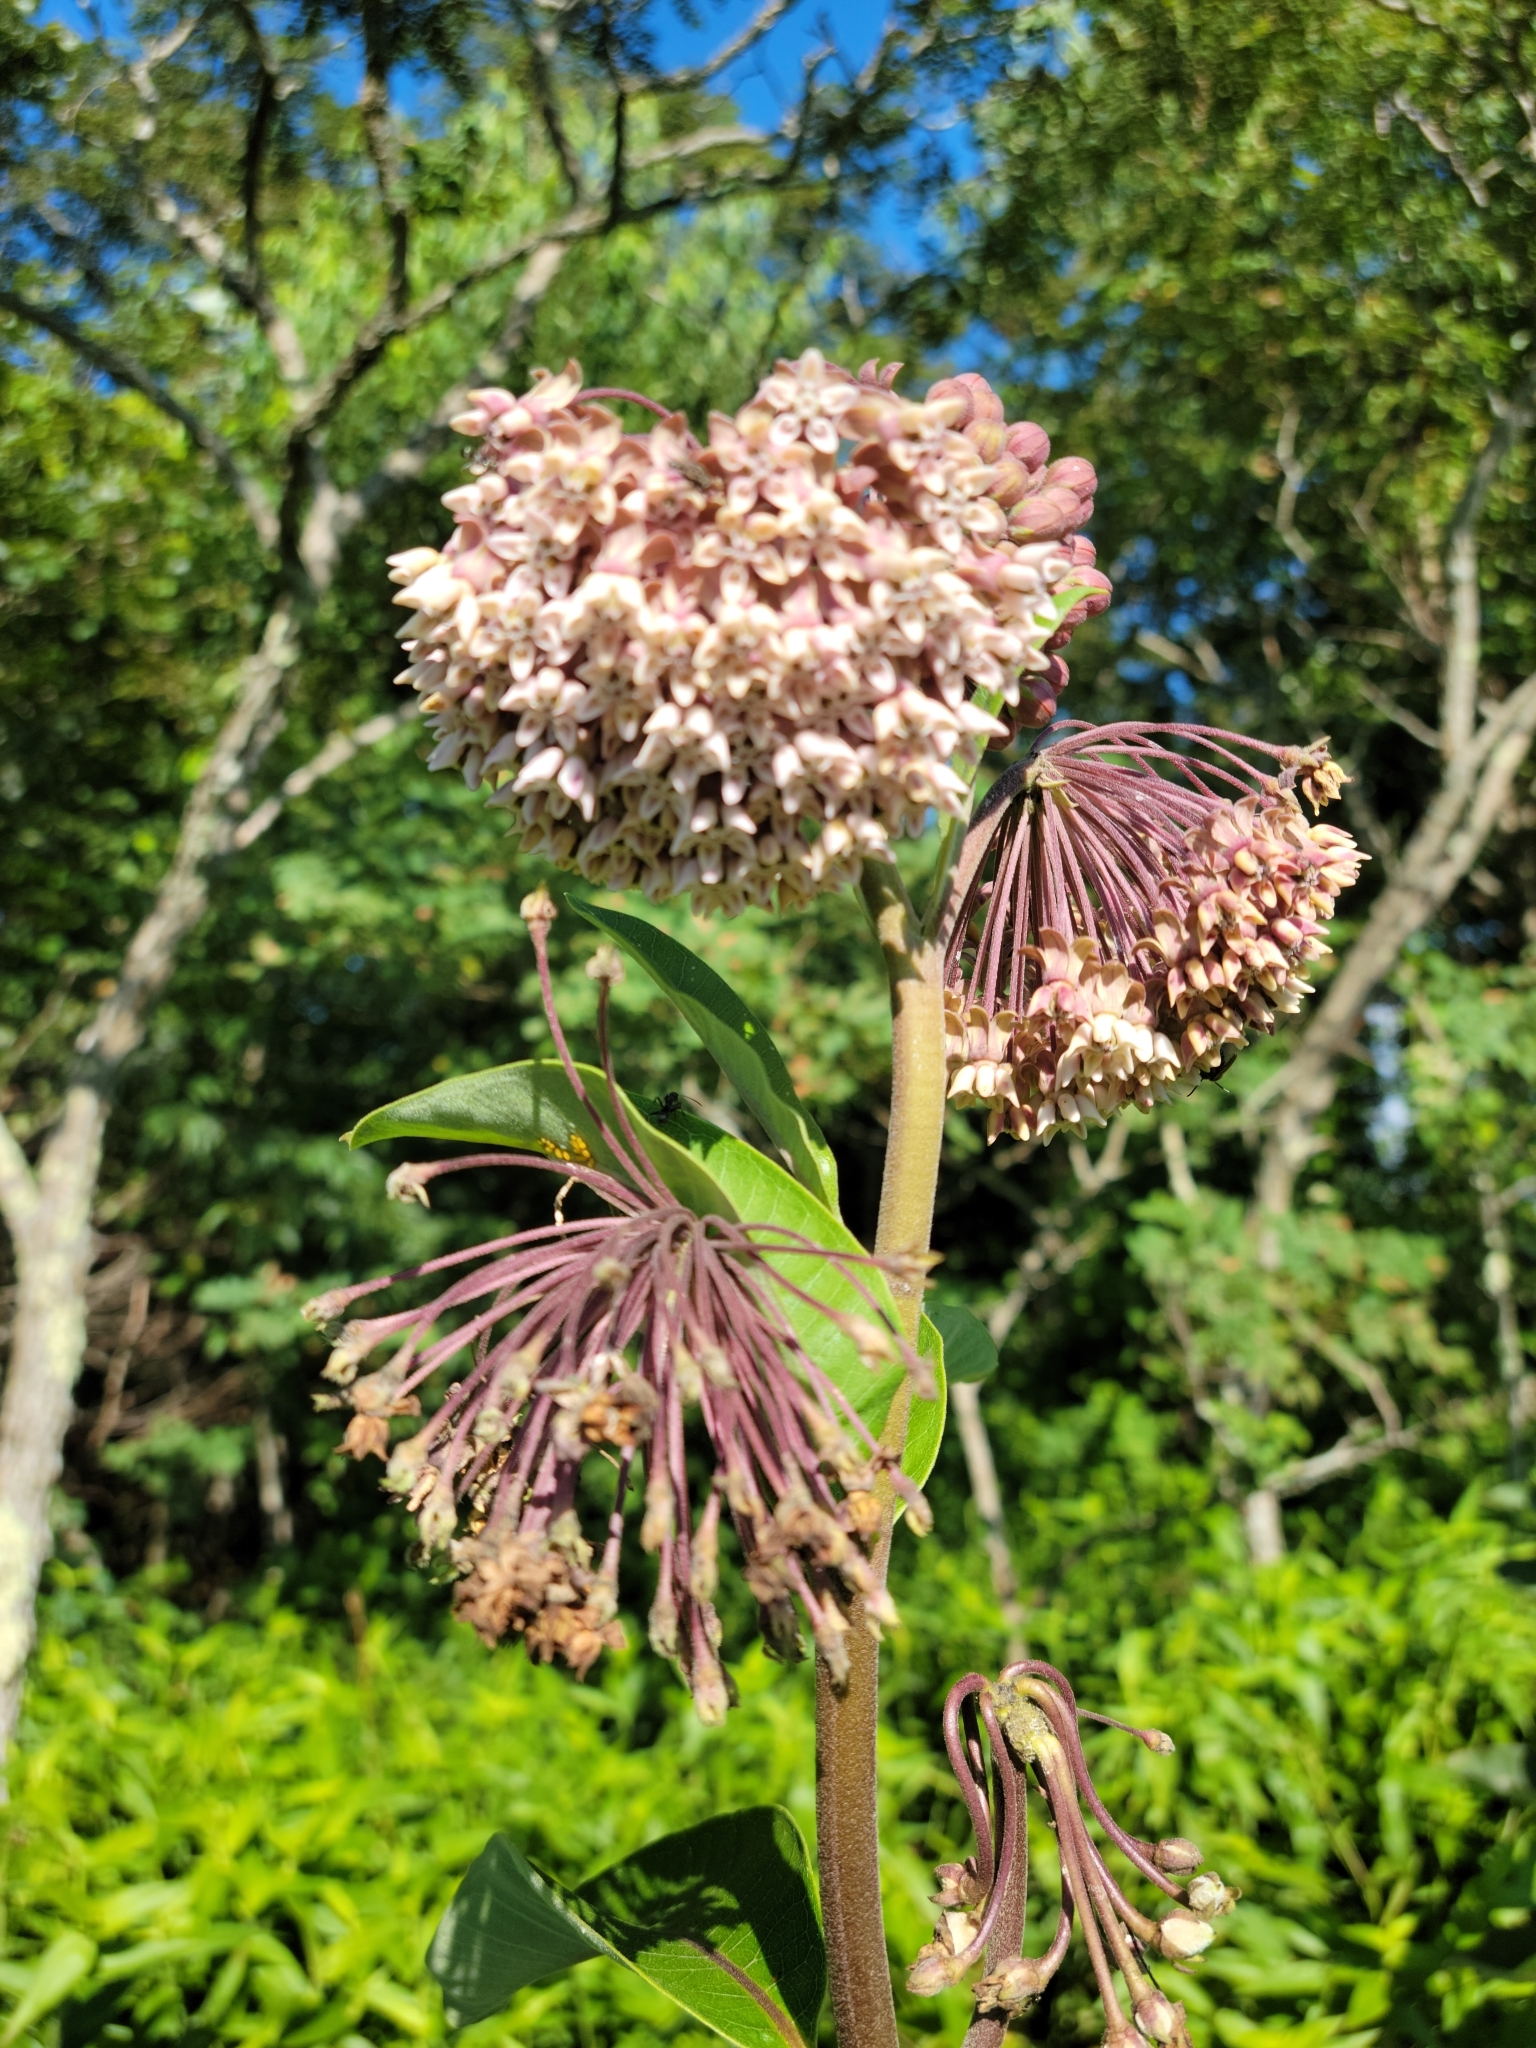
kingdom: Plantae
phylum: Tracheophyta
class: Magnoliopsida
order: Gentianales
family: Apocynaceae
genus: Asclepias
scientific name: Asclepias syriaca
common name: Common milkweed
